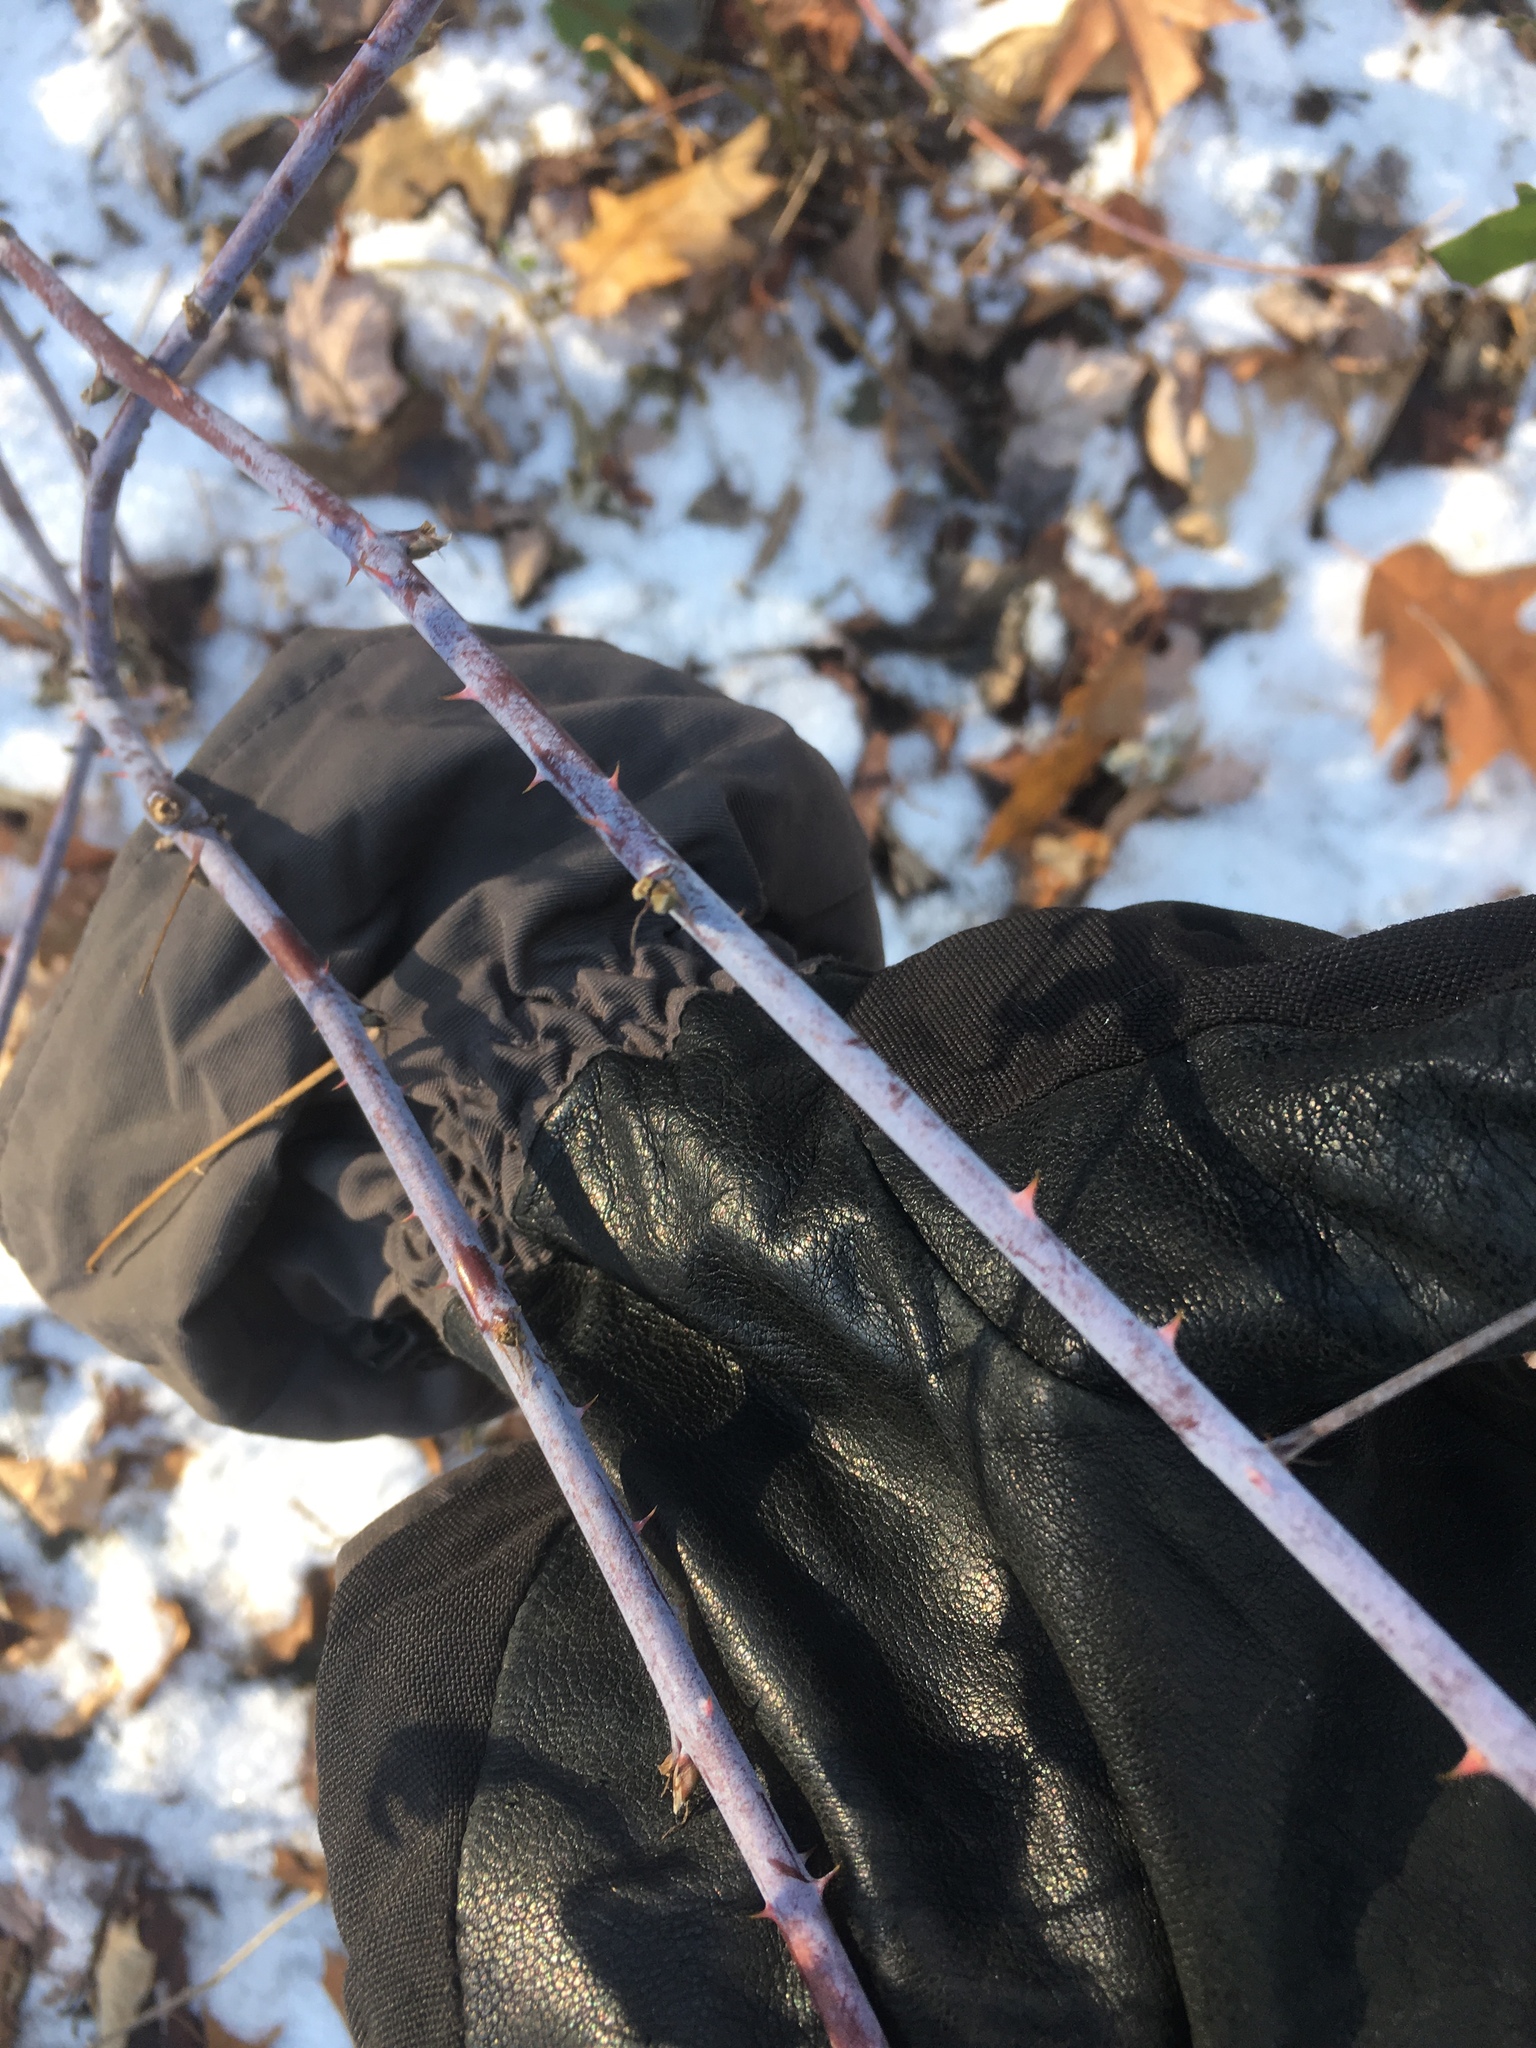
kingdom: Plantae
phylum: Tracheophyta
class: Magnoliopsida
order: Rosales
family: Rosaceae
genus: Rubus
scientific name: Rubus occidentalis
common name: Black raspberry
